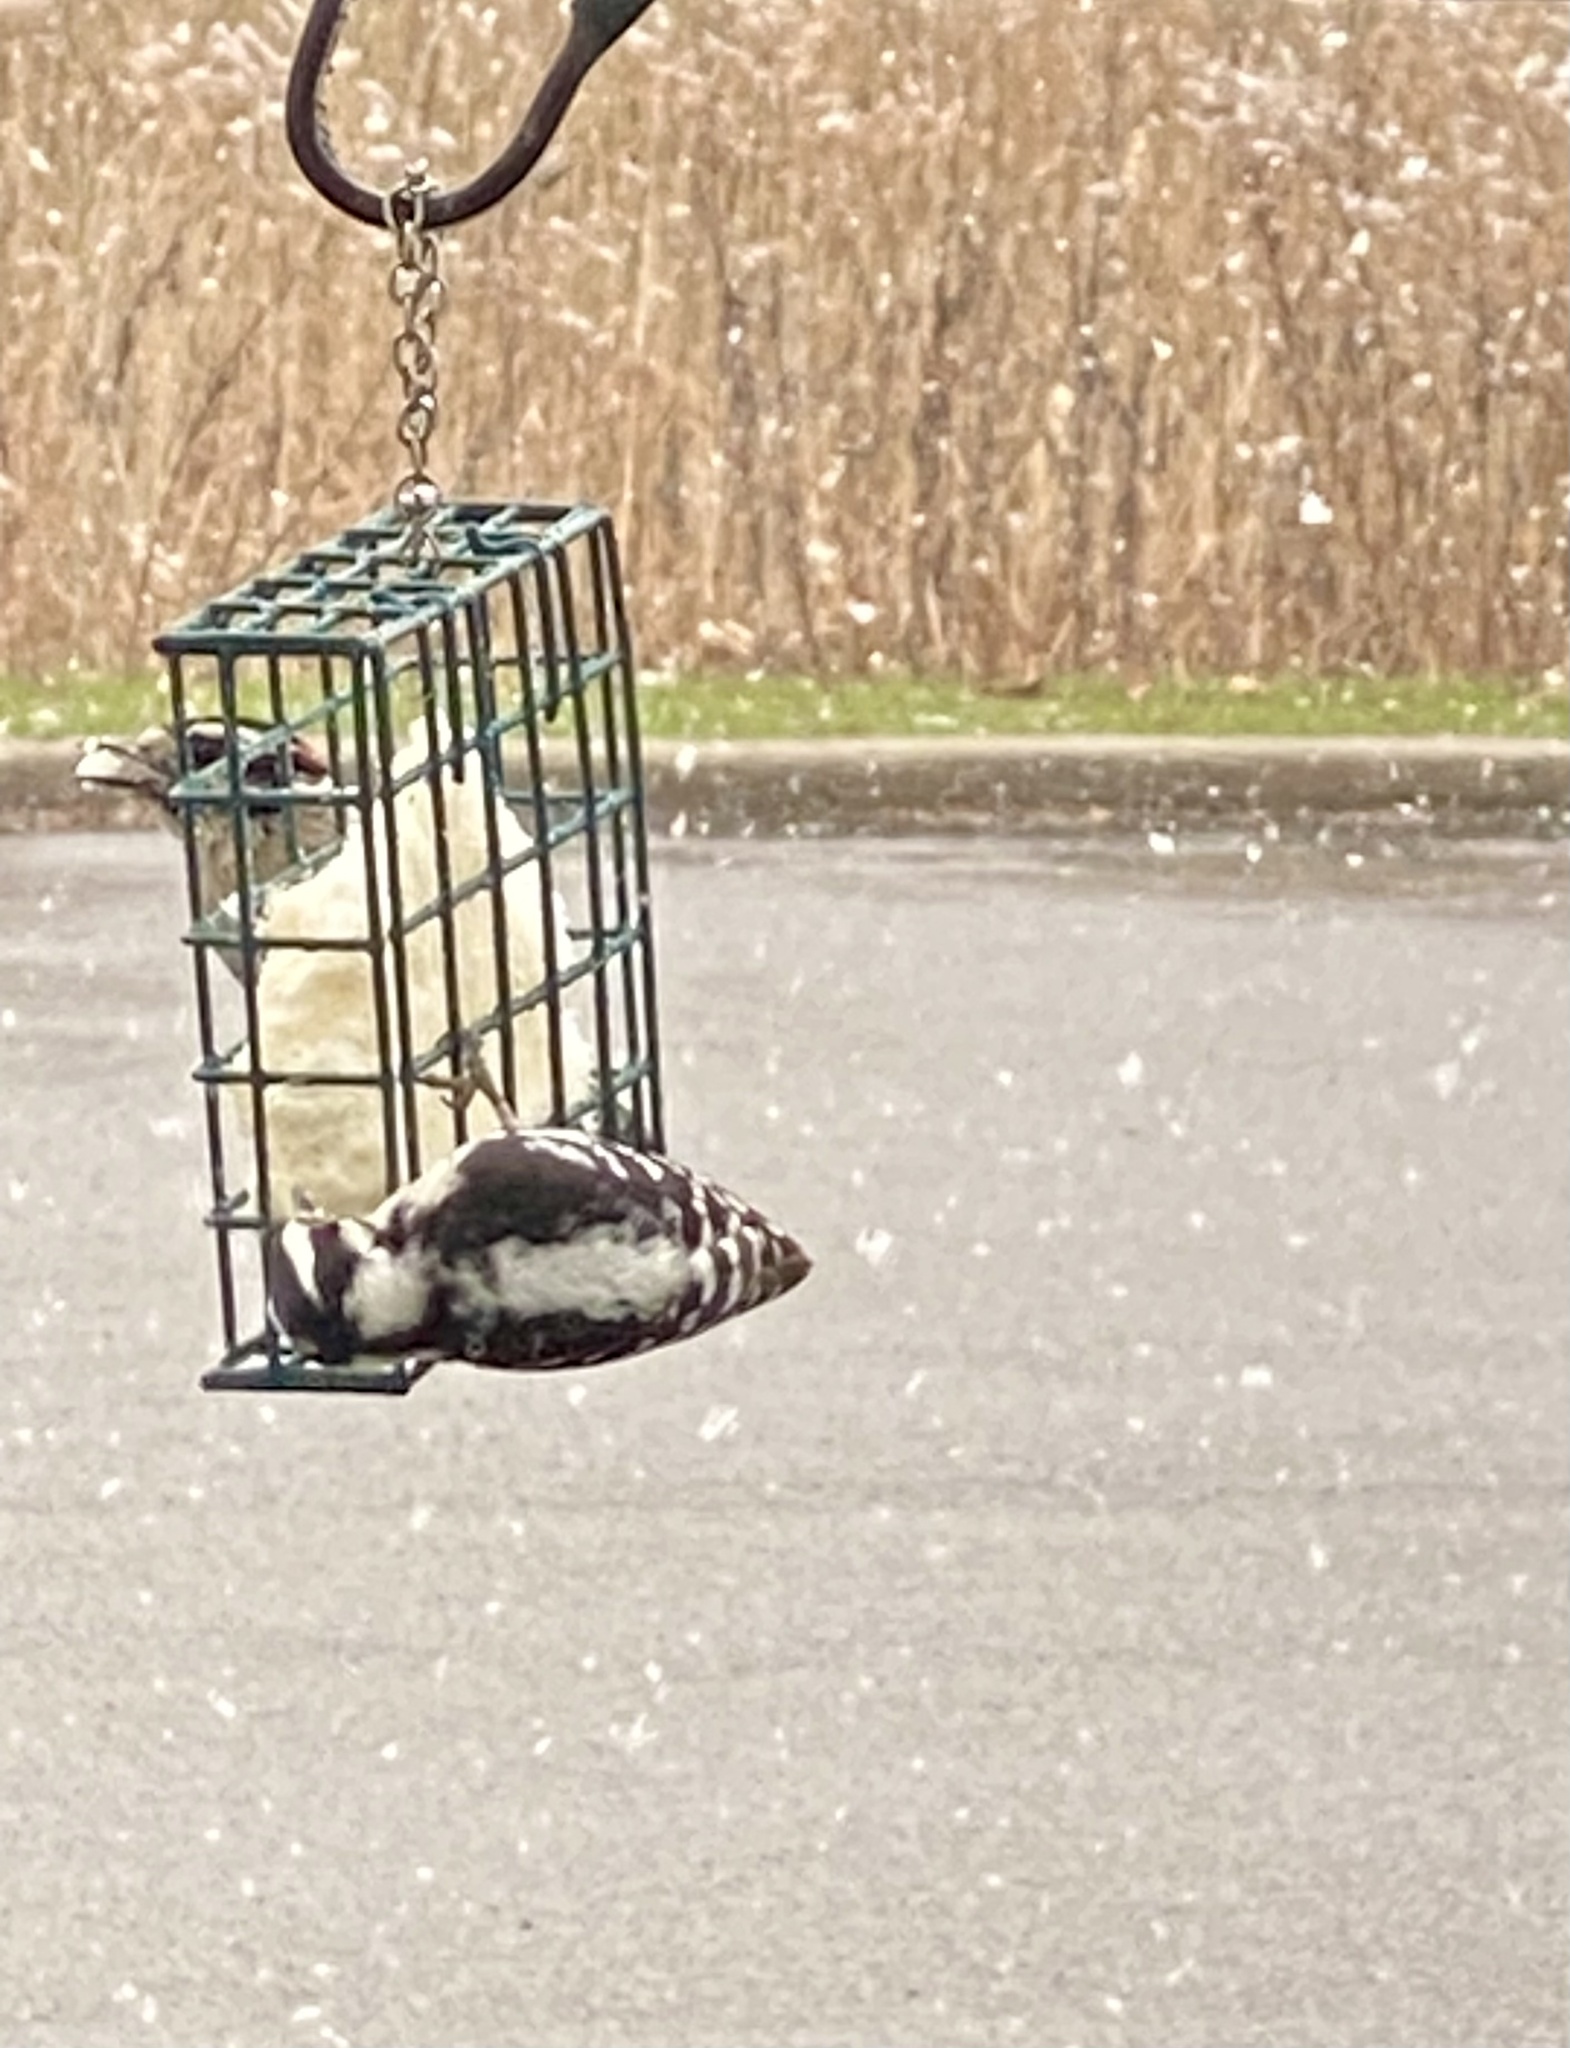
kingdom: Animalia
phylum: Chordata
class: Aves
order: Piciformes
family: Picidae
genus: Dryobates
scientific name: Dryobates pubescens
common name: Downy woodpecker
